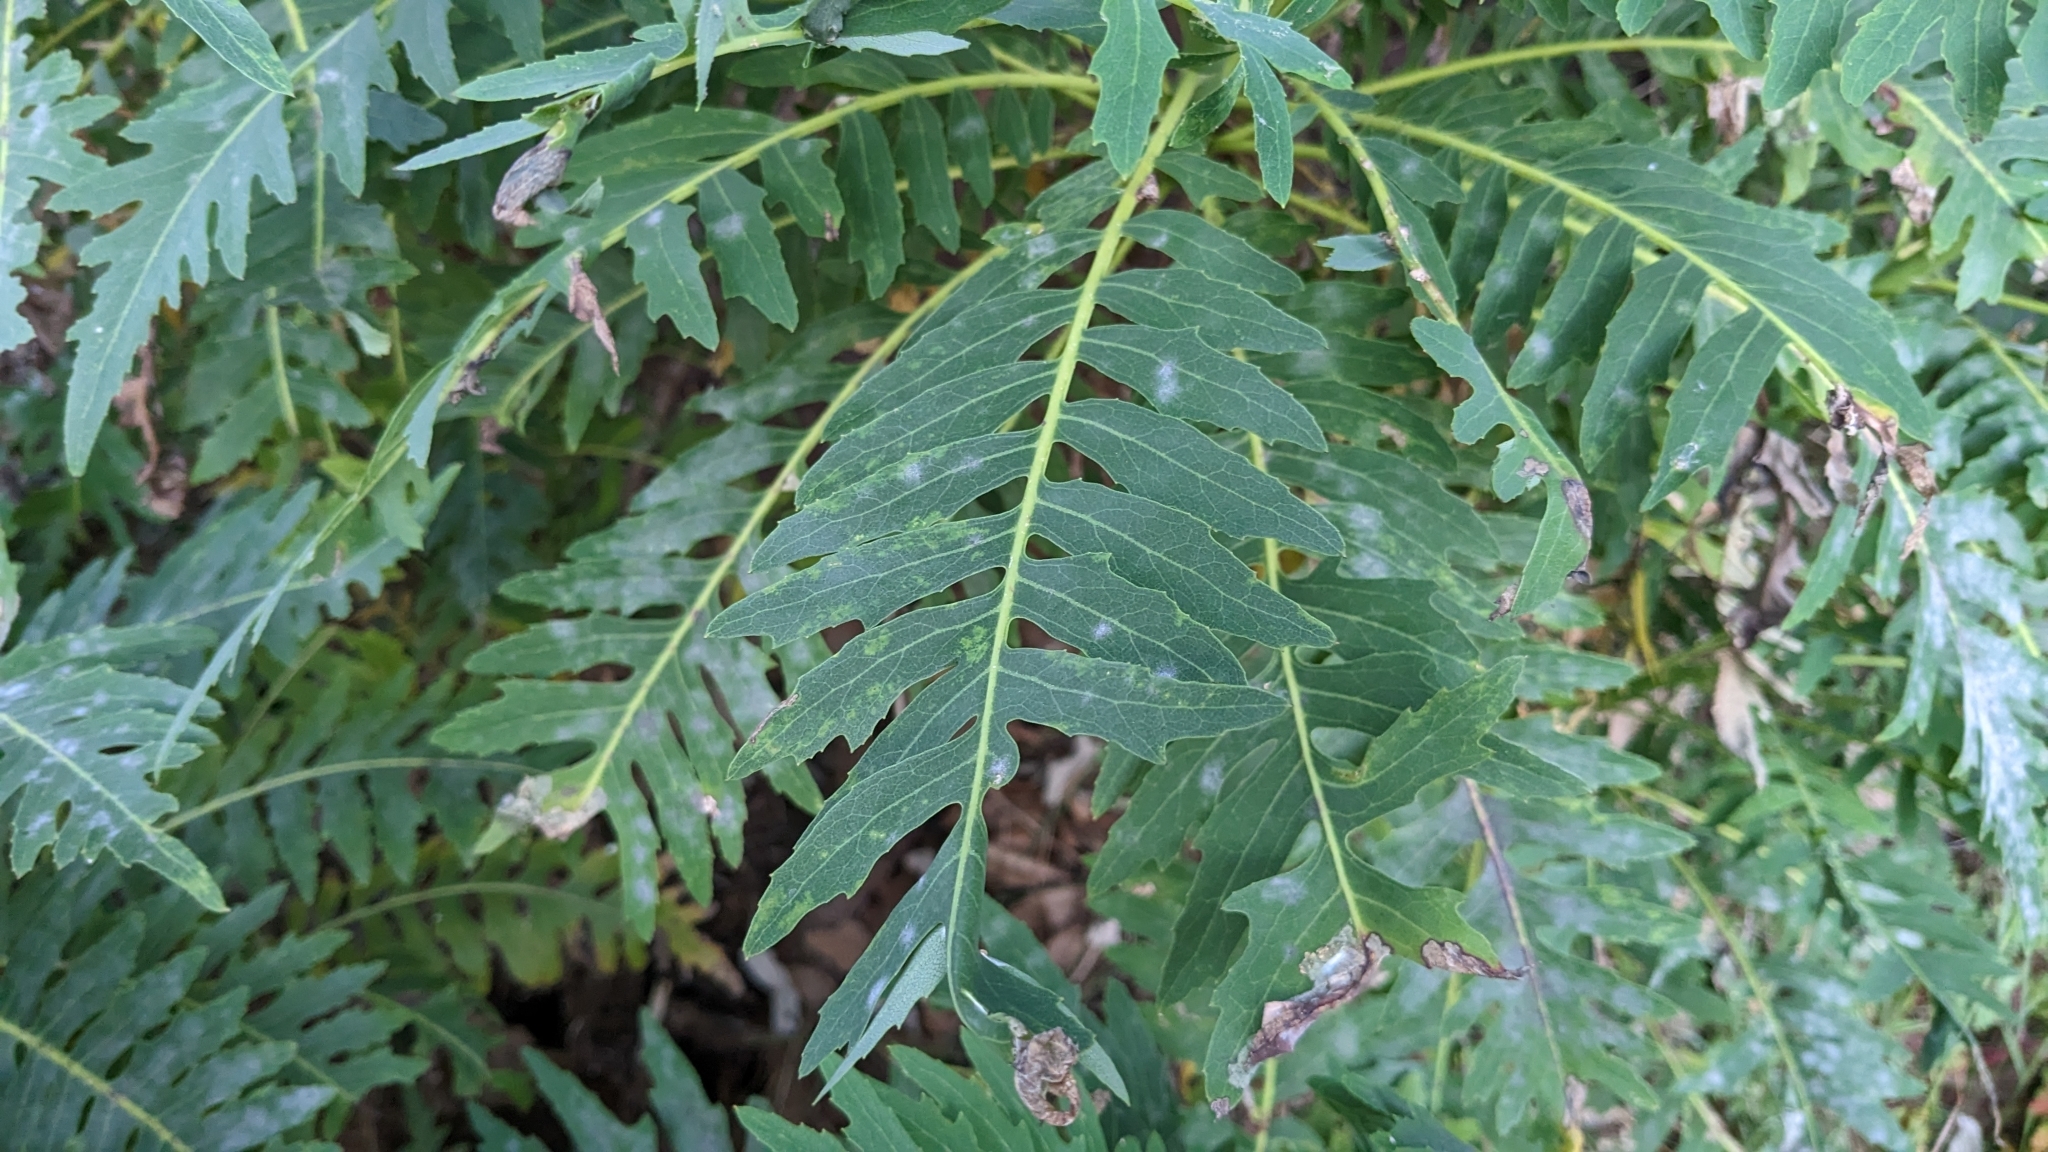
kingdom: Plantae
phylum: Tracheophyta
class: Magnoliopsida
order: Asterales
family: Asteraceae
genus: Sonchus
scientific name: Sonchus pinnatus
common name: Wing-leaved sow-thistle
